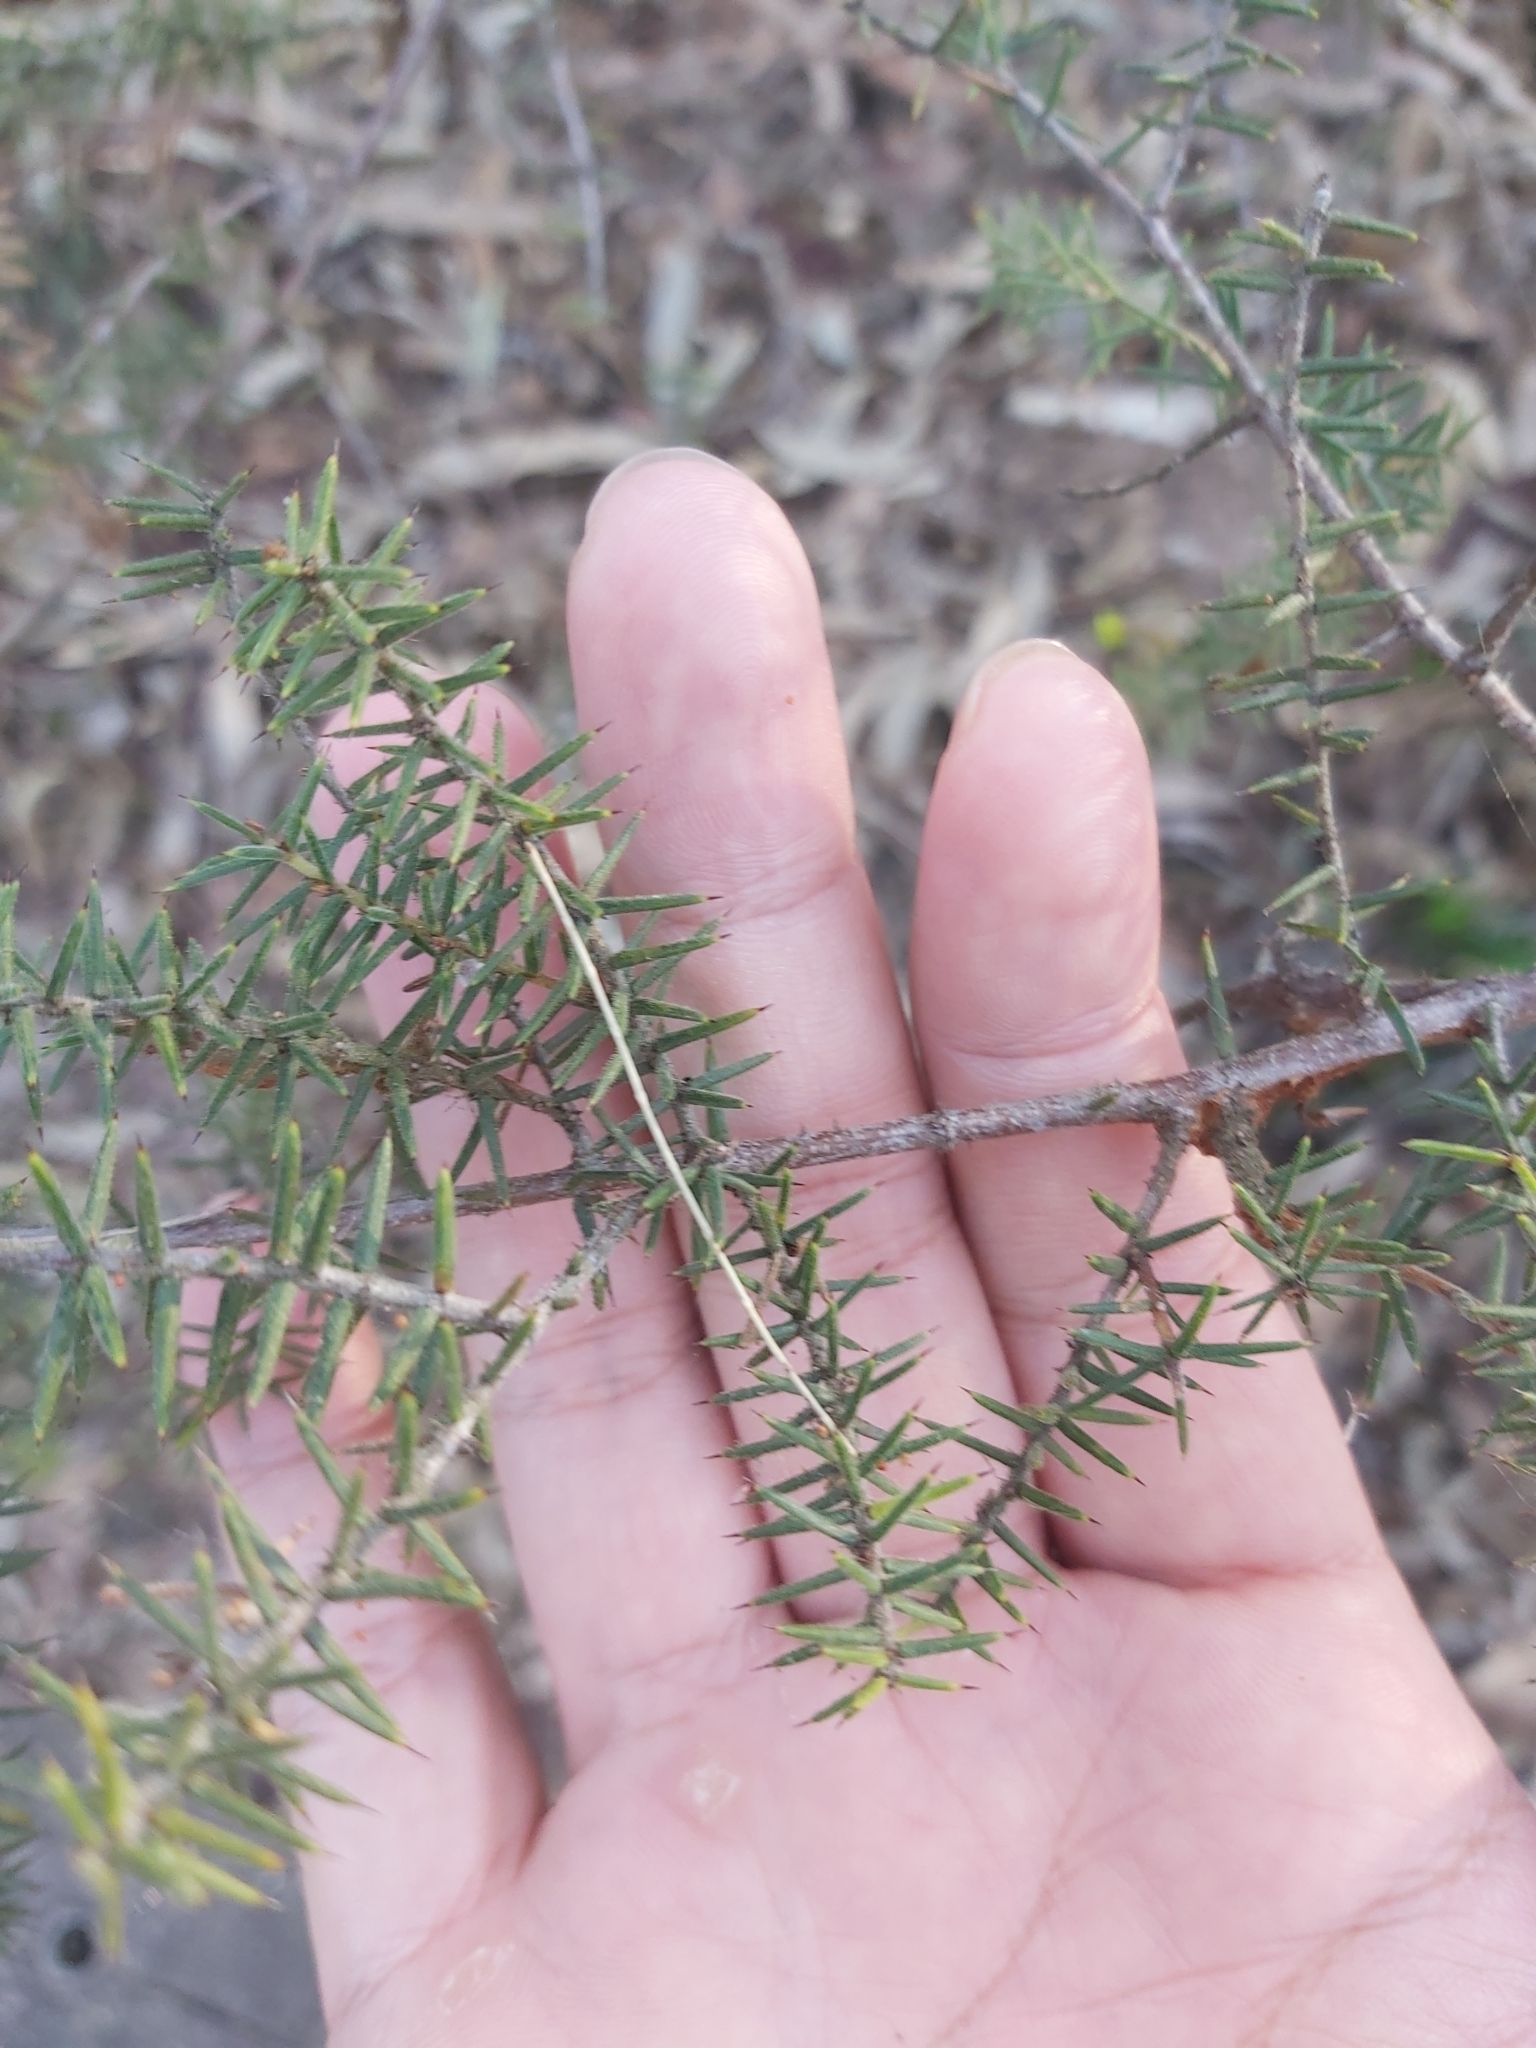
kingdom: Plantae
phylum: Tracheophyta
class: Magnoliopsida
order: Fabales
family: Fabaceae
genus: Acacia
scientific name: Acacia ulicifolia
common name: Juniper wattle
